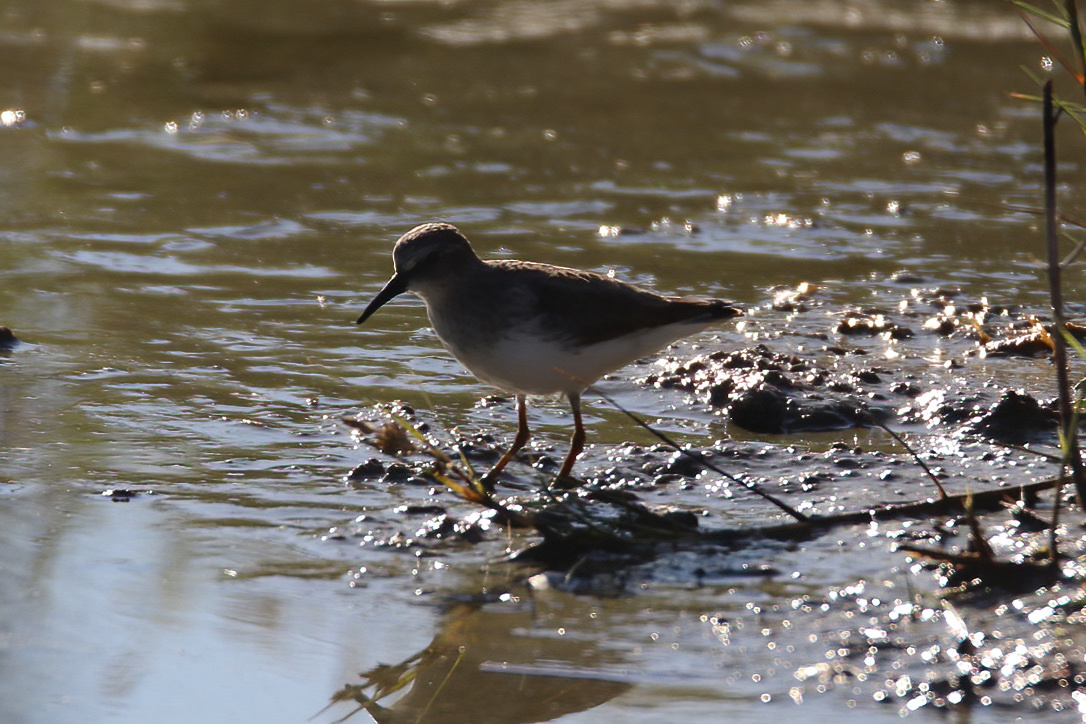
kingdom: Animalia
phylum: Chordata
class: Aves
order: Charadriiformes
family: Scolopacidae
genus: Calidris
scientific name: Calidris minutilla
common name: Least sandpiper
